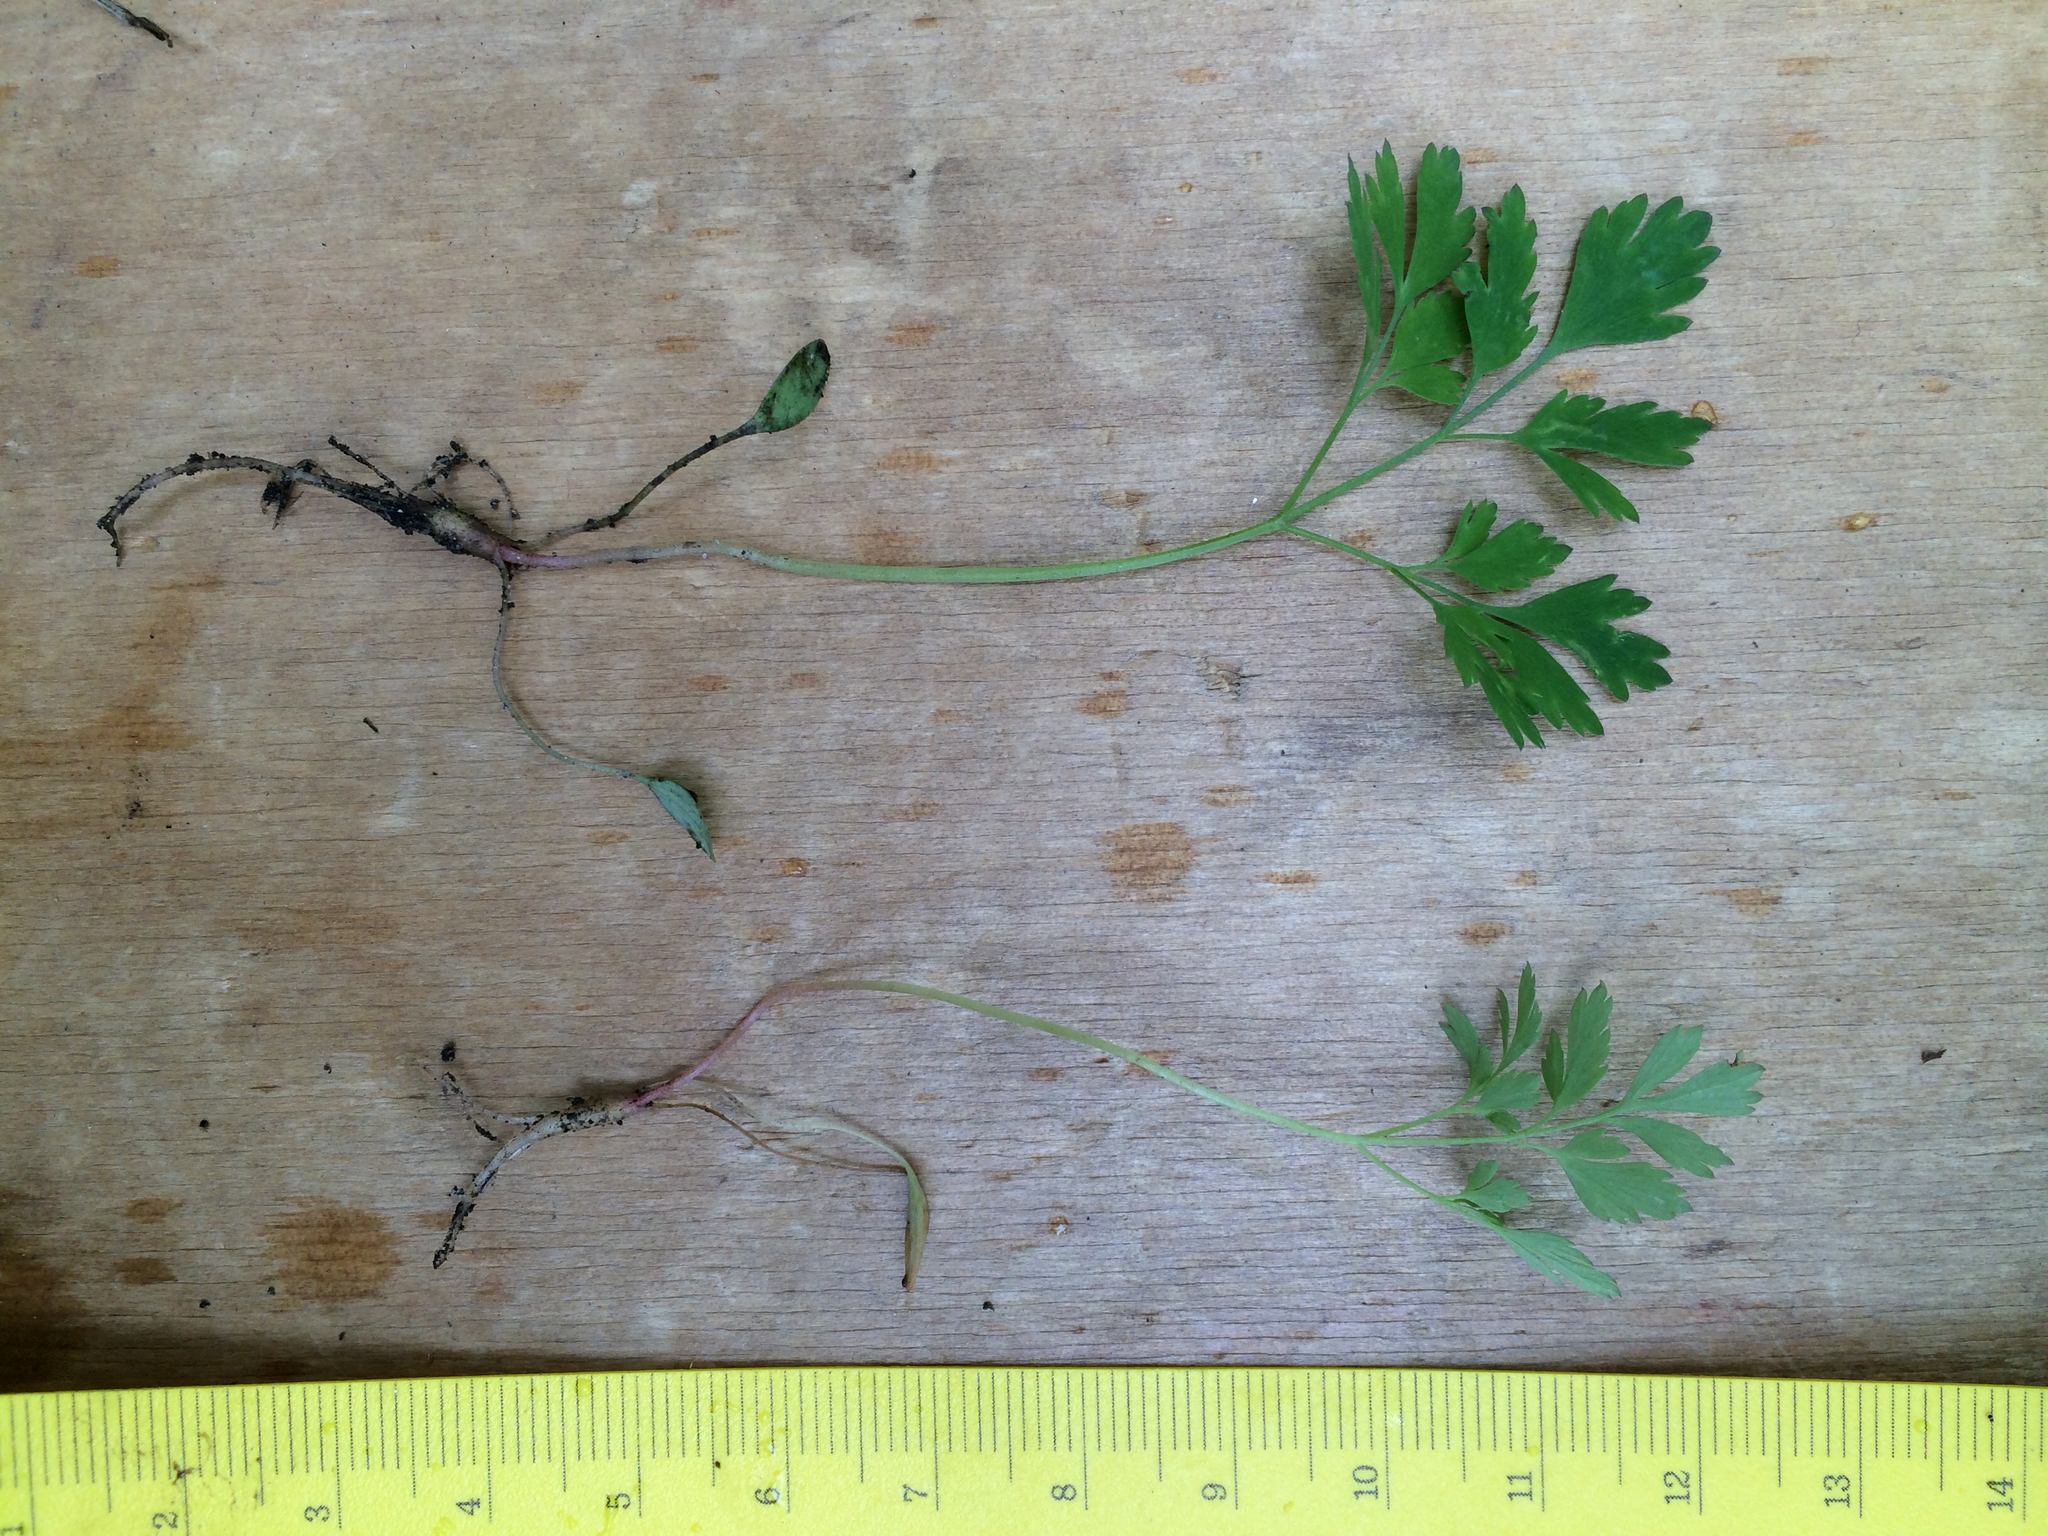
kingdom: Plantae
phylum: Tracheophyta
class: Magnoliopsida
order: Ranunculales
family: Papaveraceae
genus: Corydalis
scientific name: Corydalis incisa
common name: Incised fumewort
